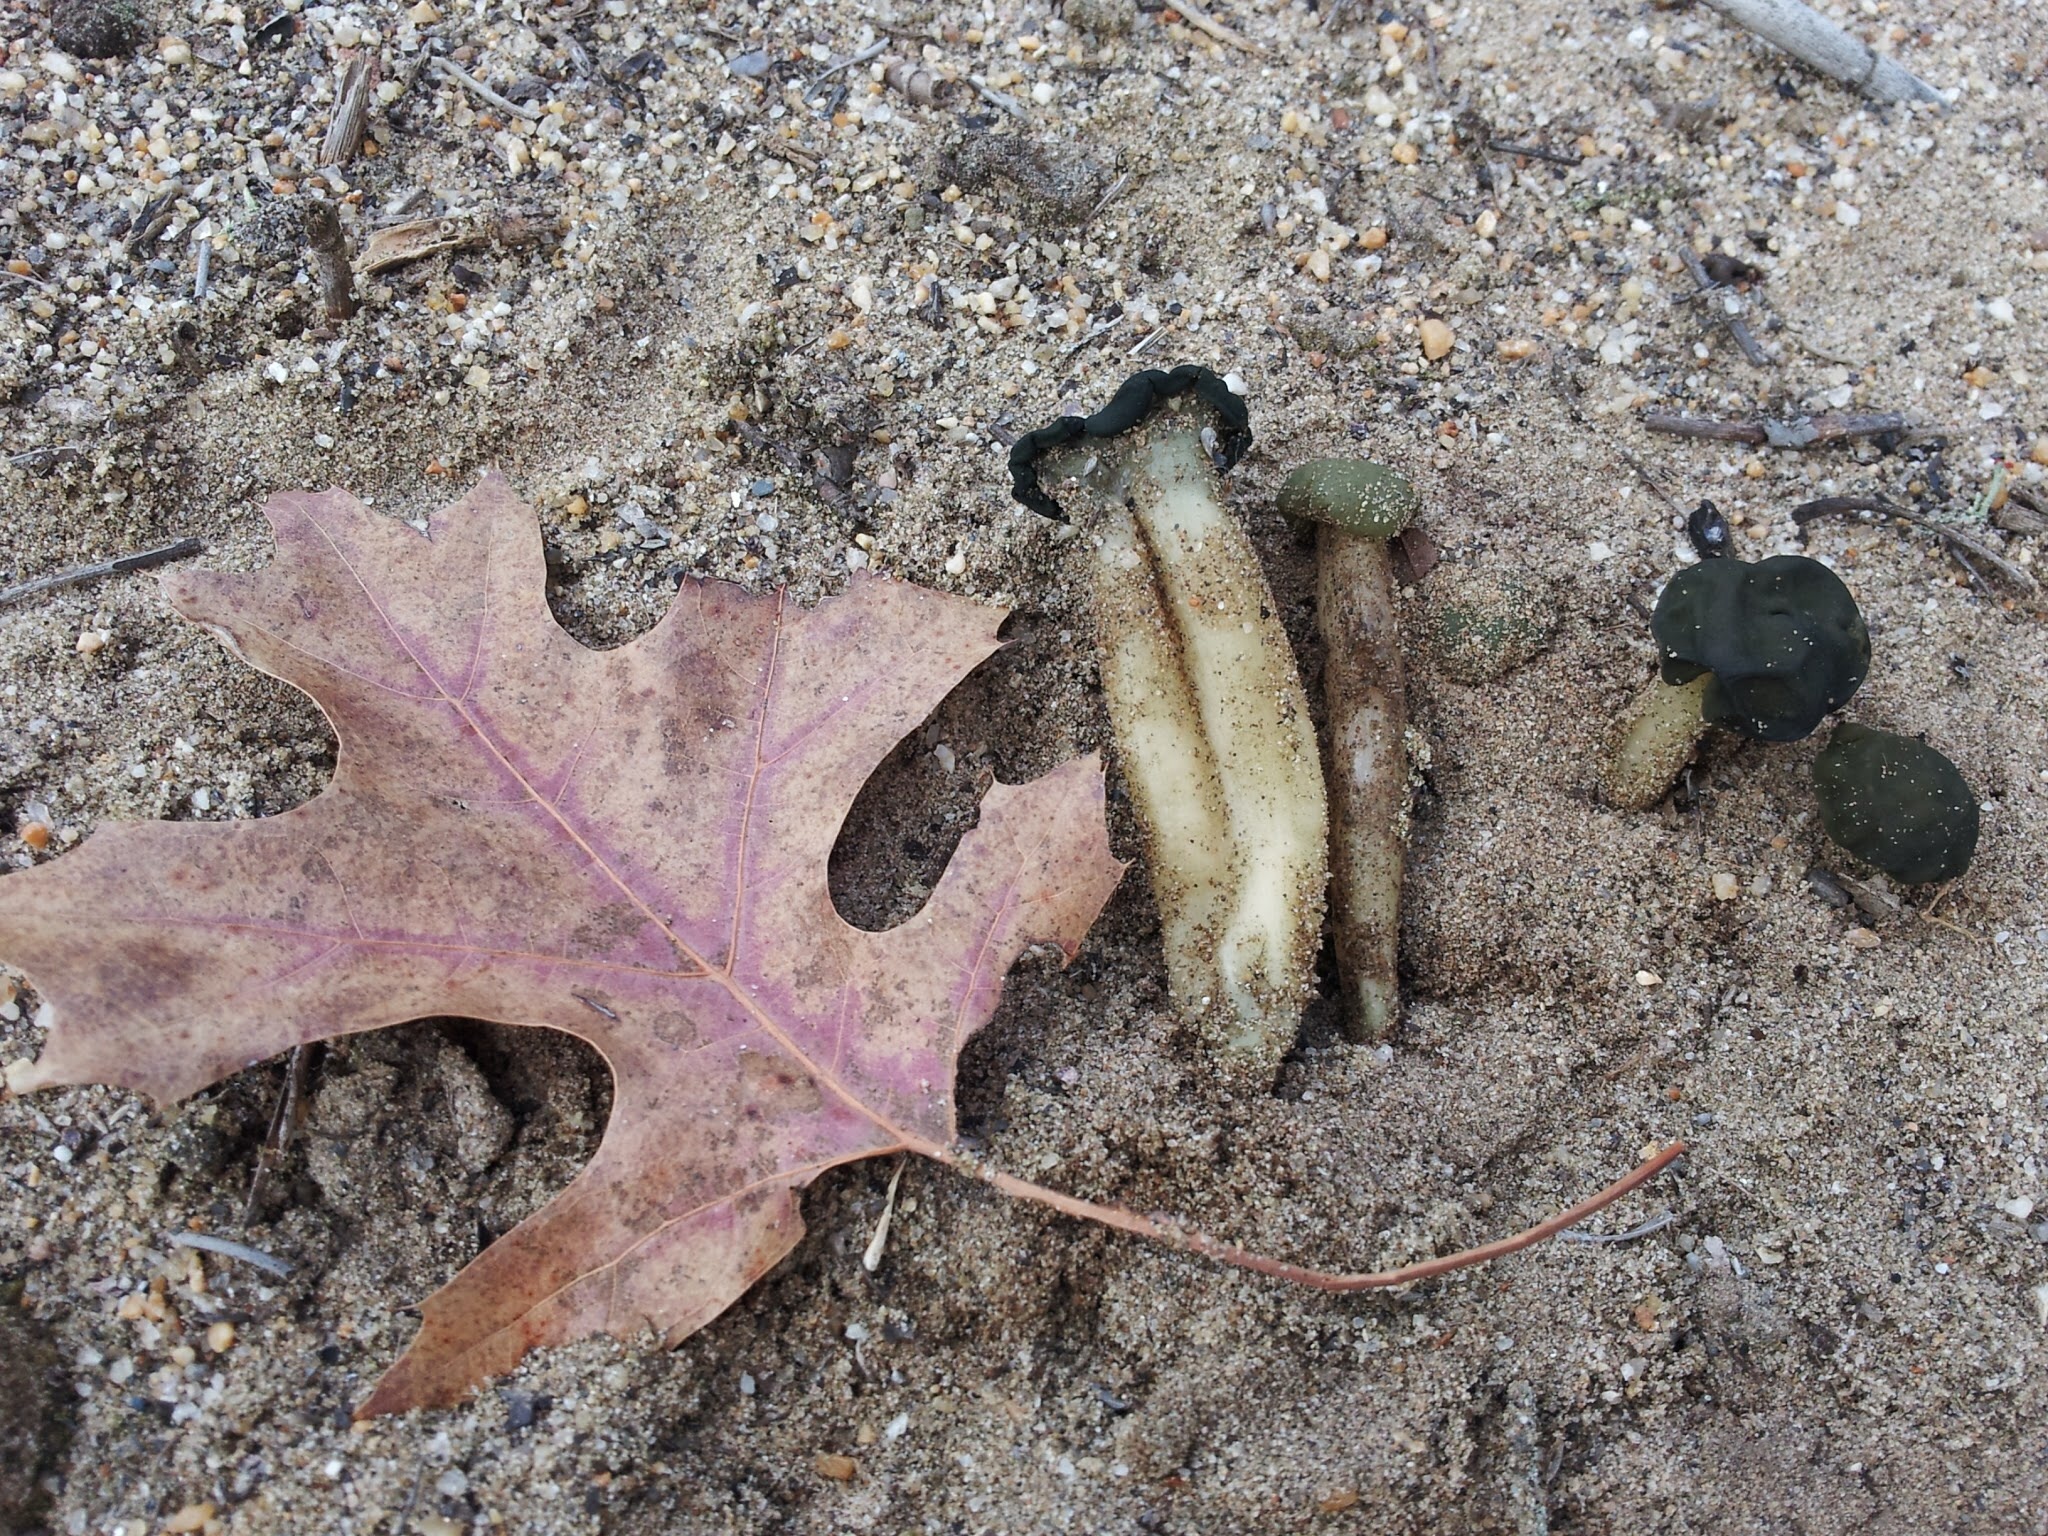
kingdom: Fungi
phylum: Ascomycota
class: Leotiomycetes
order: Leotiales
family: Leotiaceae
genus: Leotia
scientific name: Leotia lubrica
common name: Jellybaby
